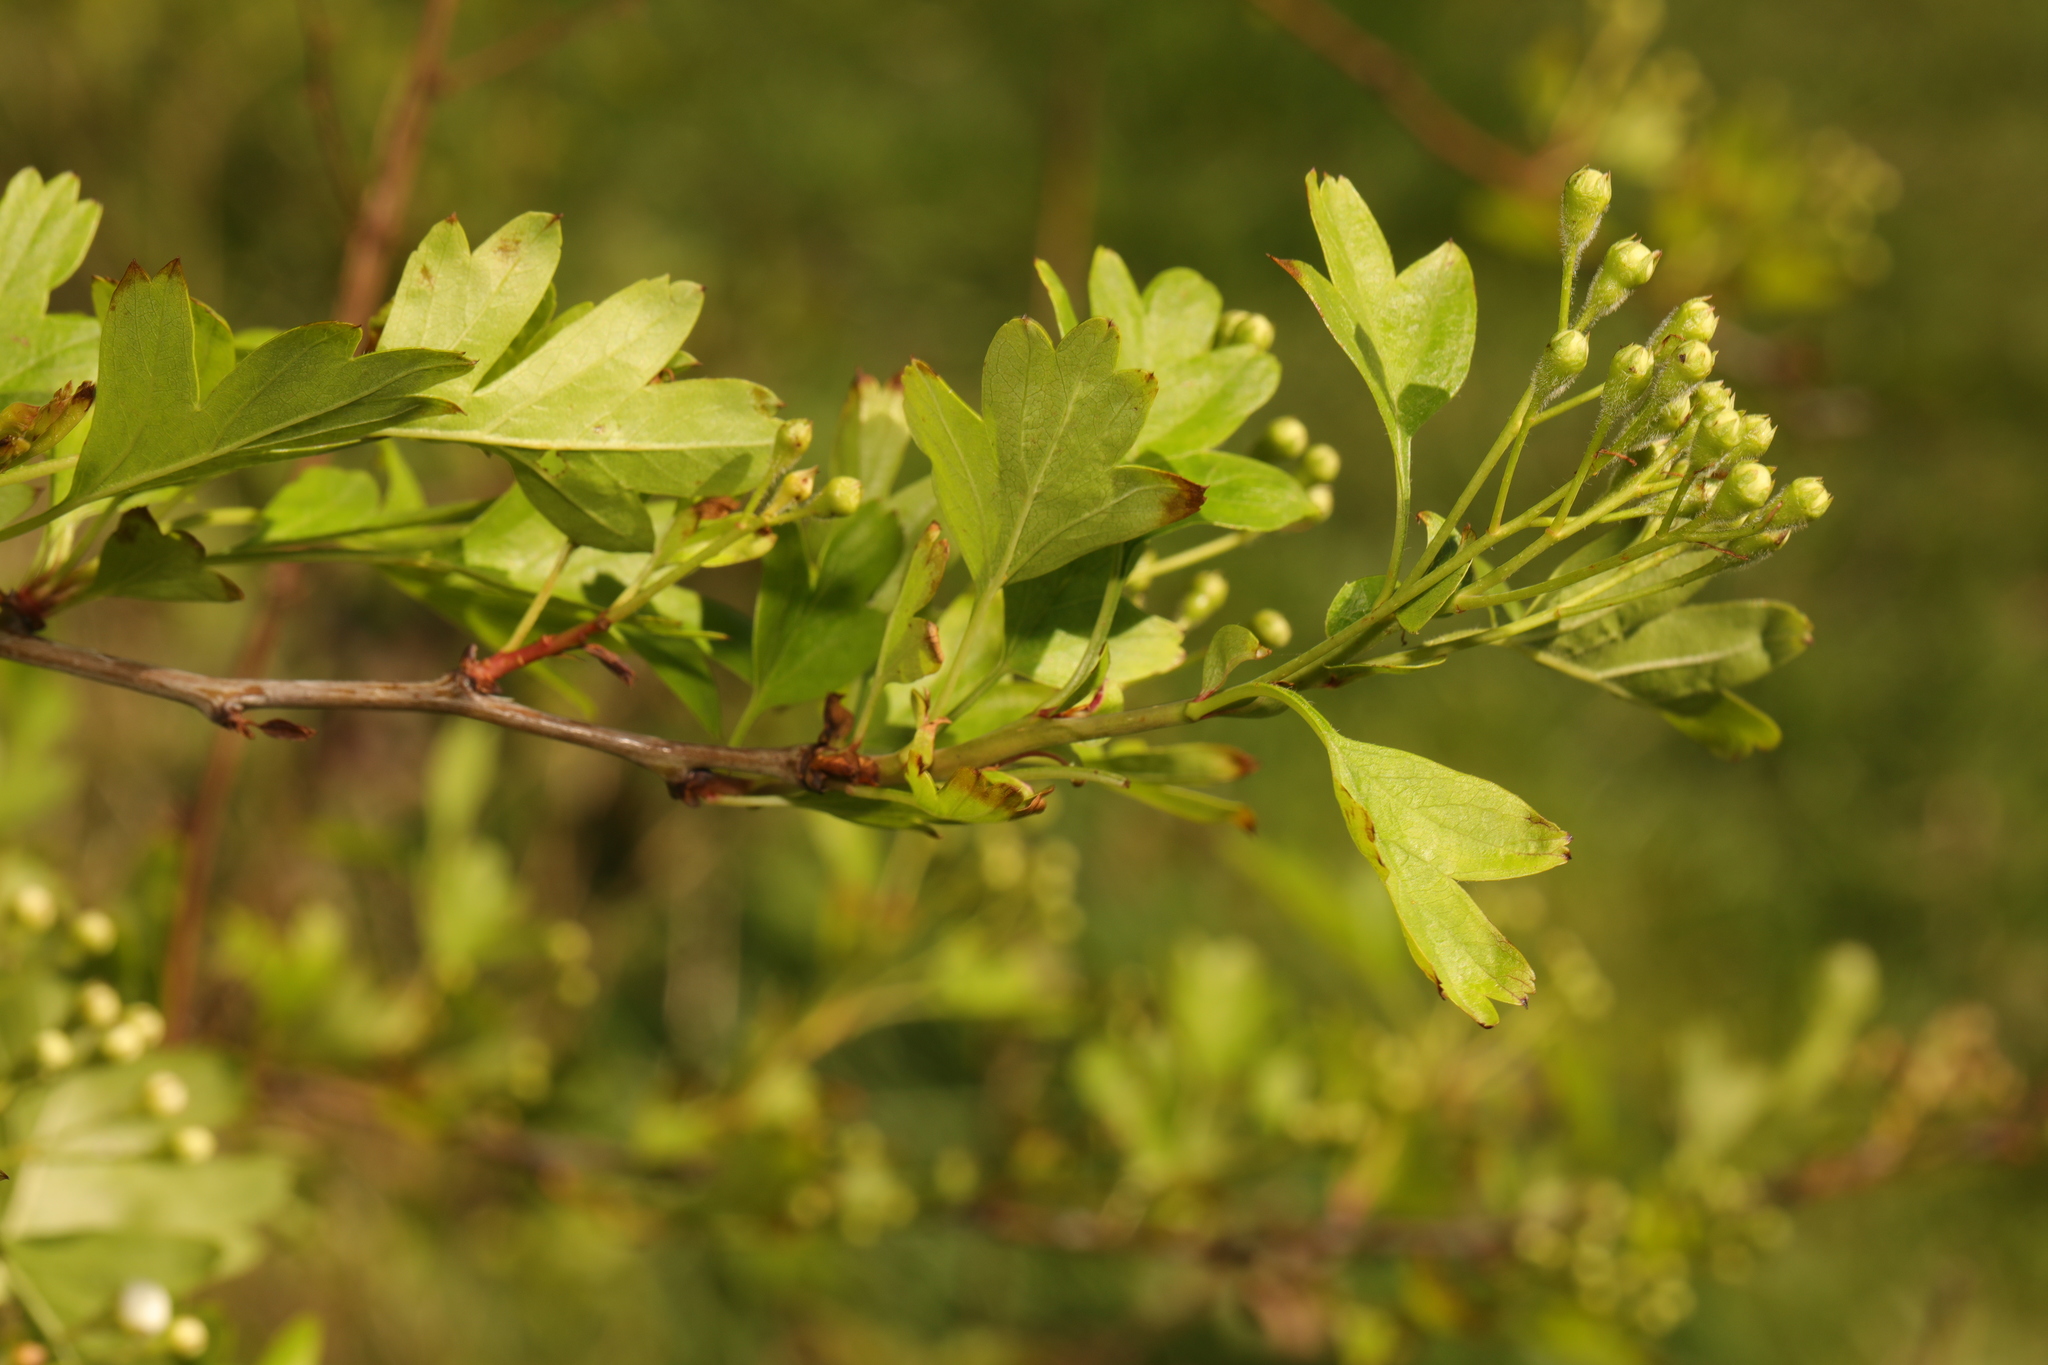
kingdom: Plantae
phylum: Tracheophyta
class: Magnoliopsida
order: Rosales
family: Rosaceae
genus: Crataegus
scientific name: Crataegus monogyna
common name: Hawthorn
